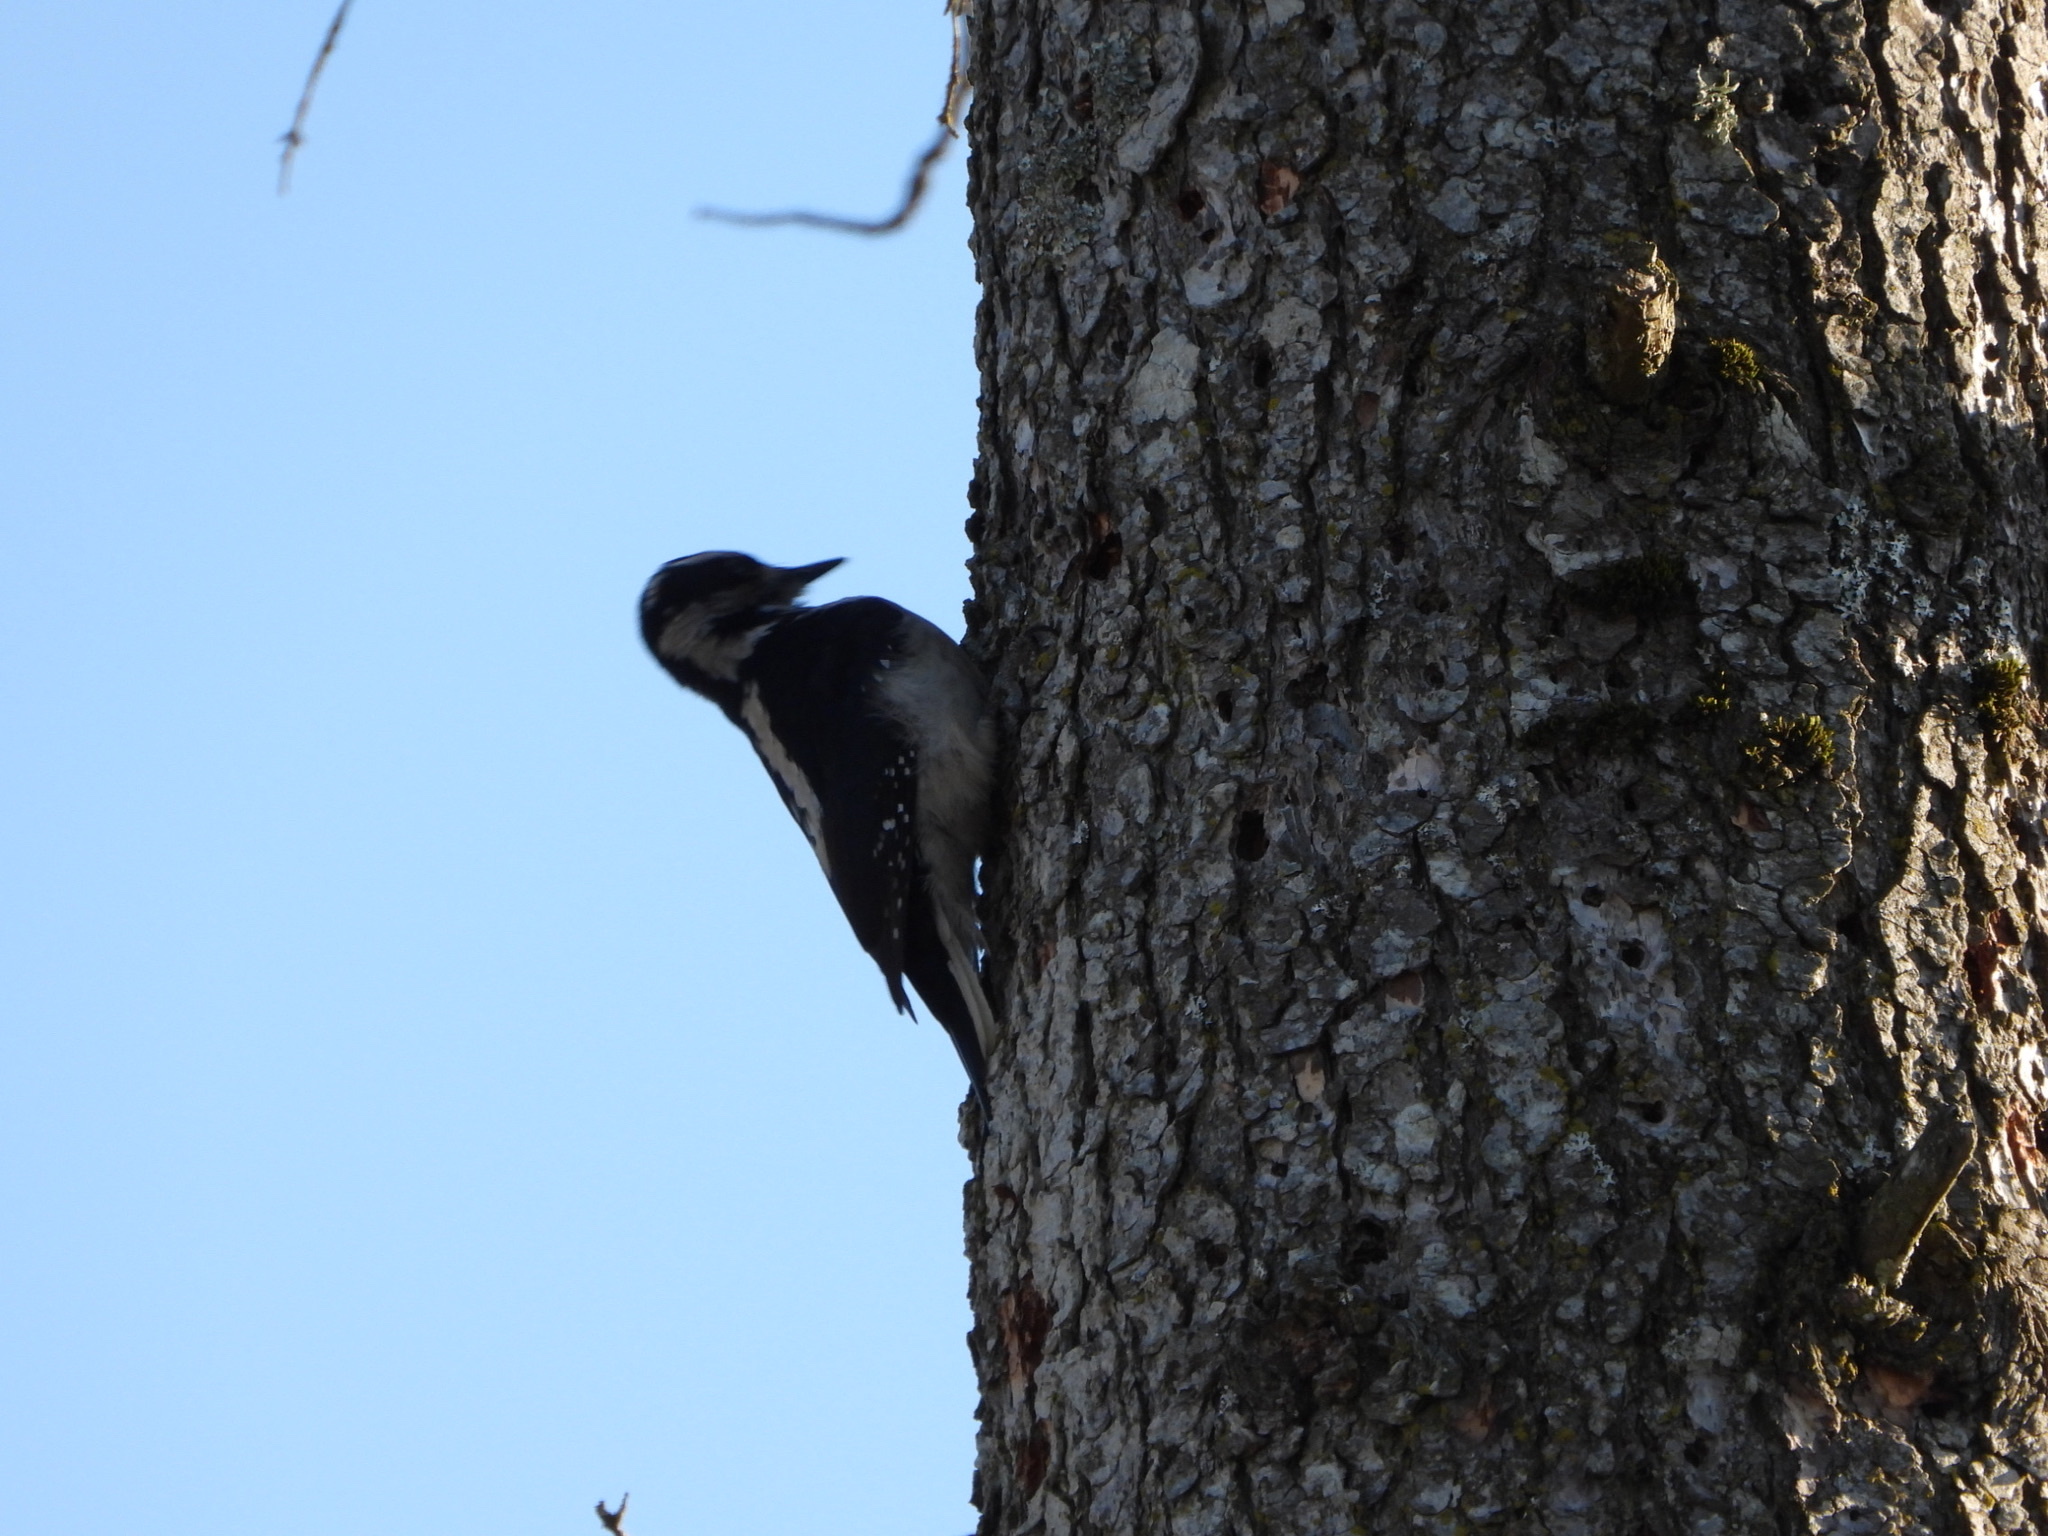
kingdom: Animalia
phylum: Chordata
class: Aves
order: Piciformes
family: Picidae
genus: Leuconotopicus
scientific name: Leuconotopicus villosus
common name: Hairy woodpecker
